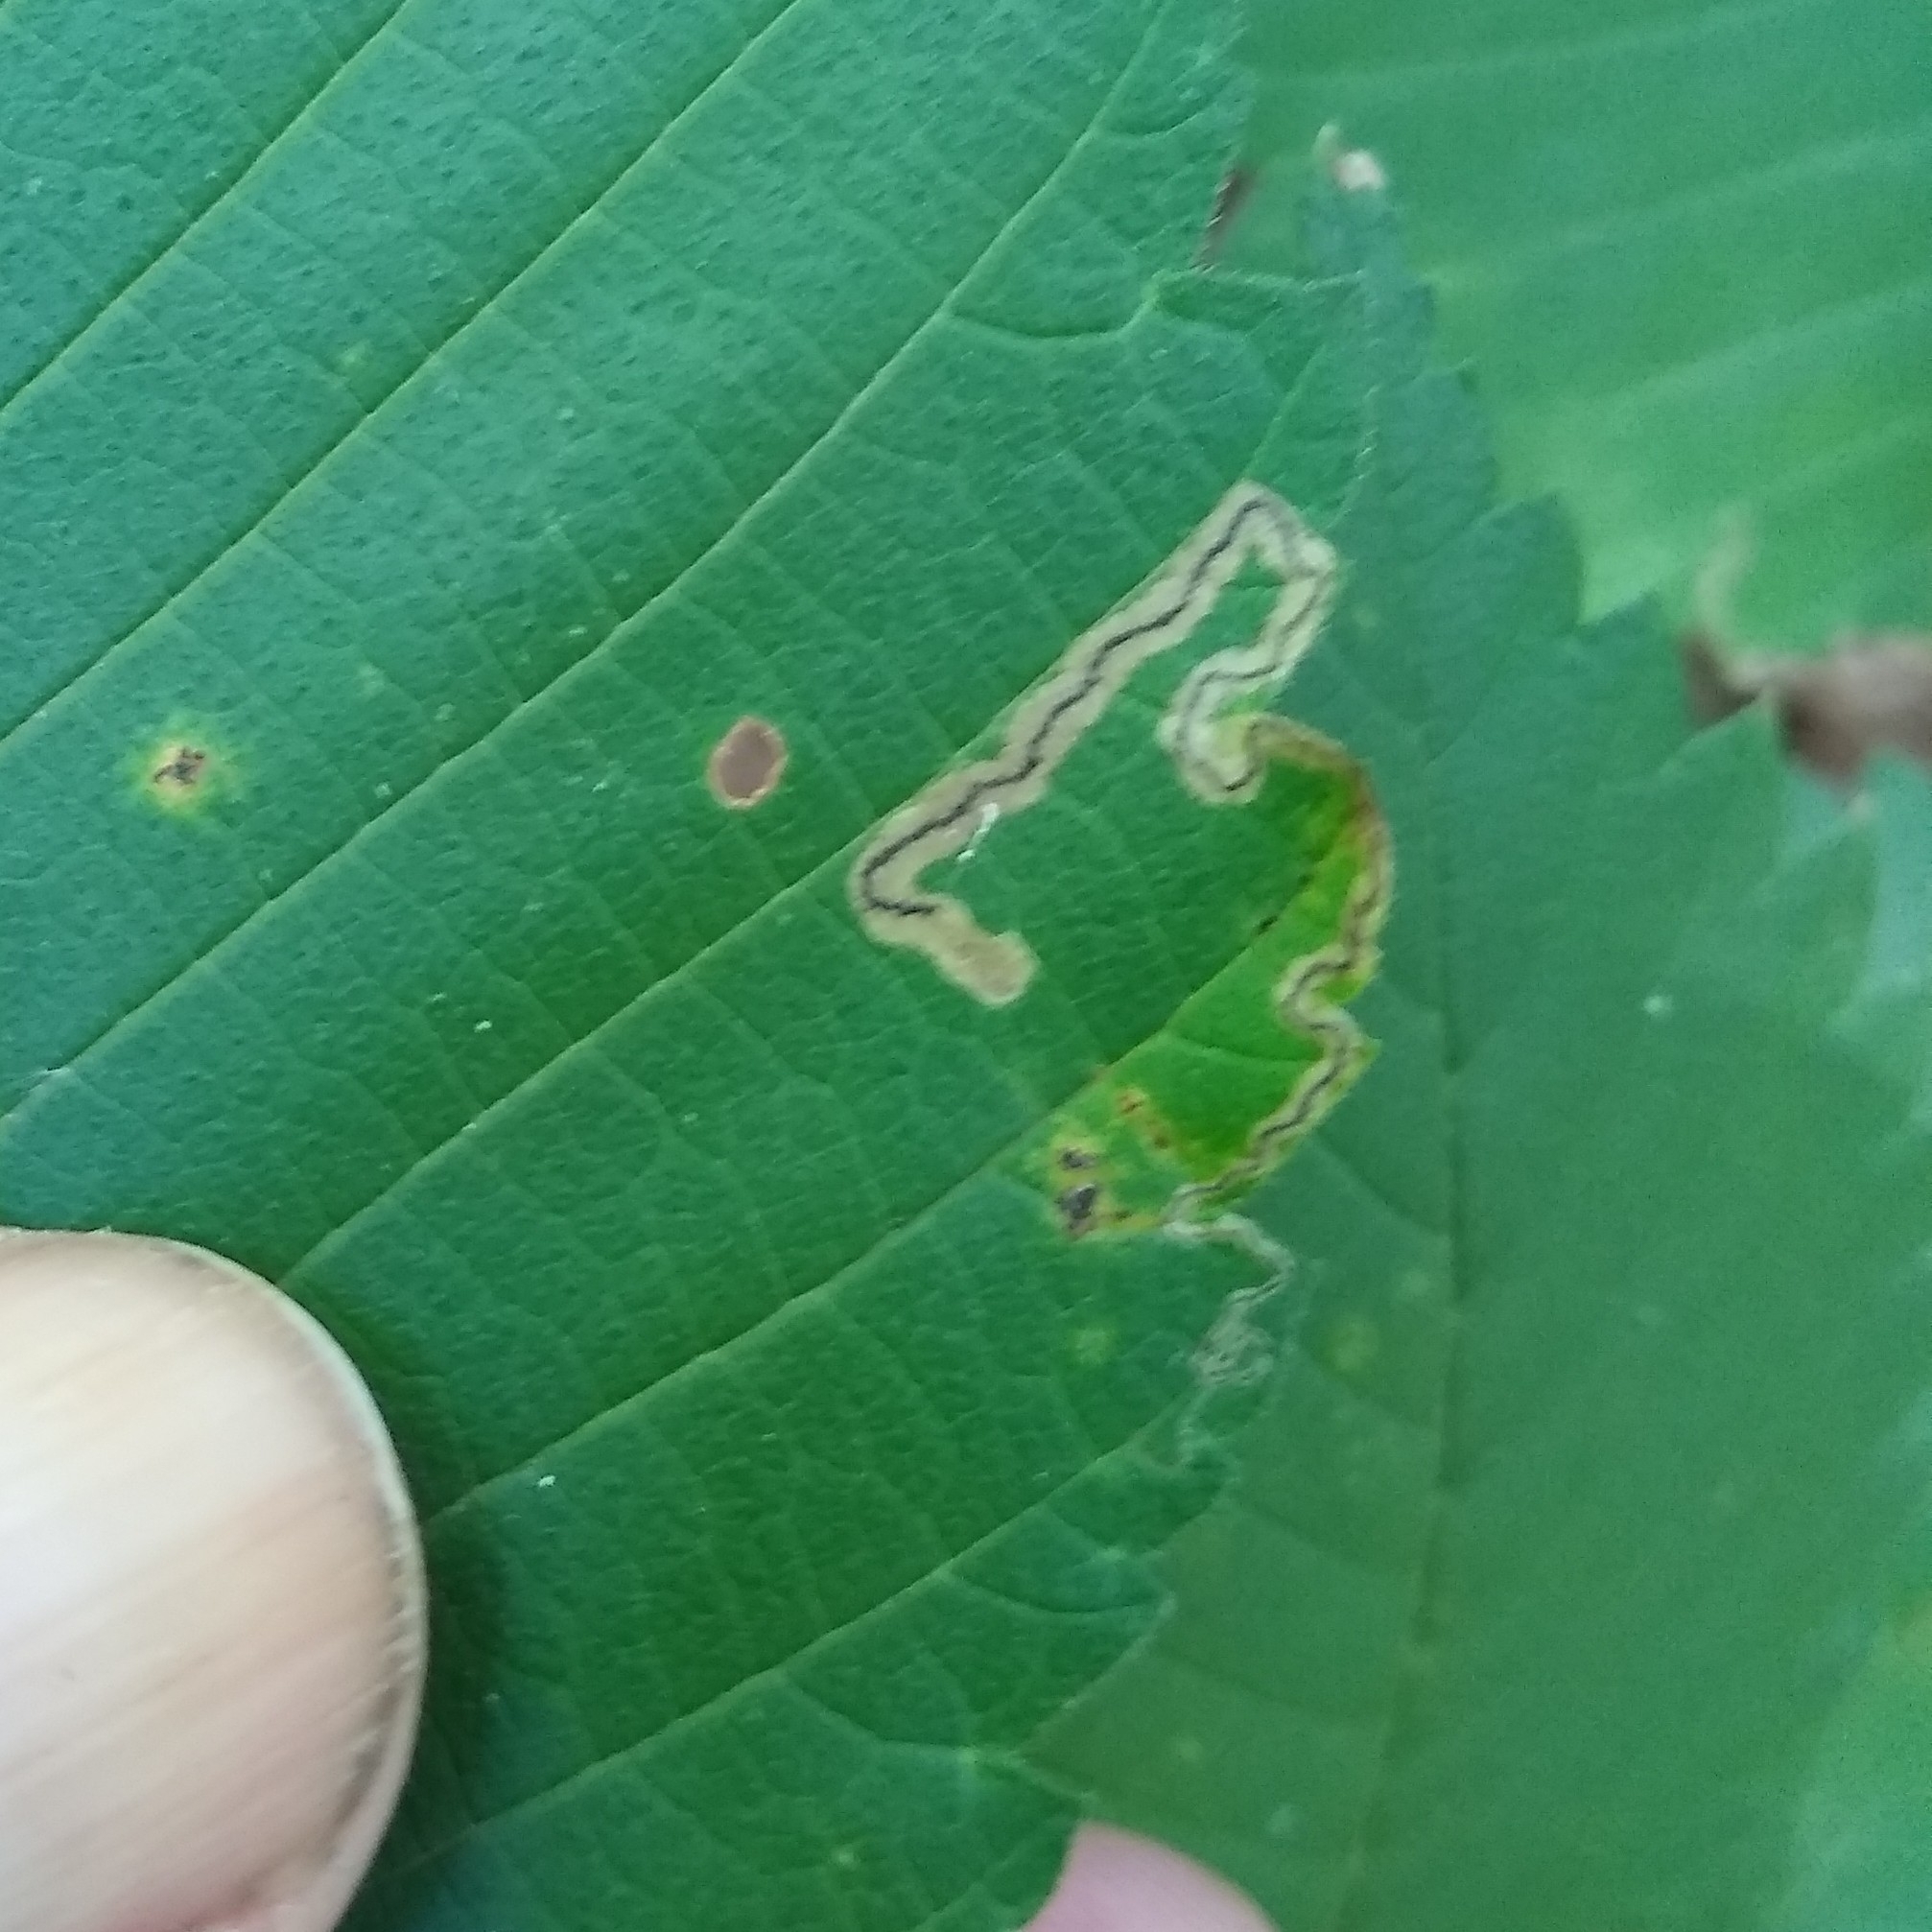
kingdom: Animalia
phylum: Arthropoda
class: Insecta
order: Lepidoptera
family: Nepticulidae
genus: Stigmella
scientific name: Stigmella apicialbella
